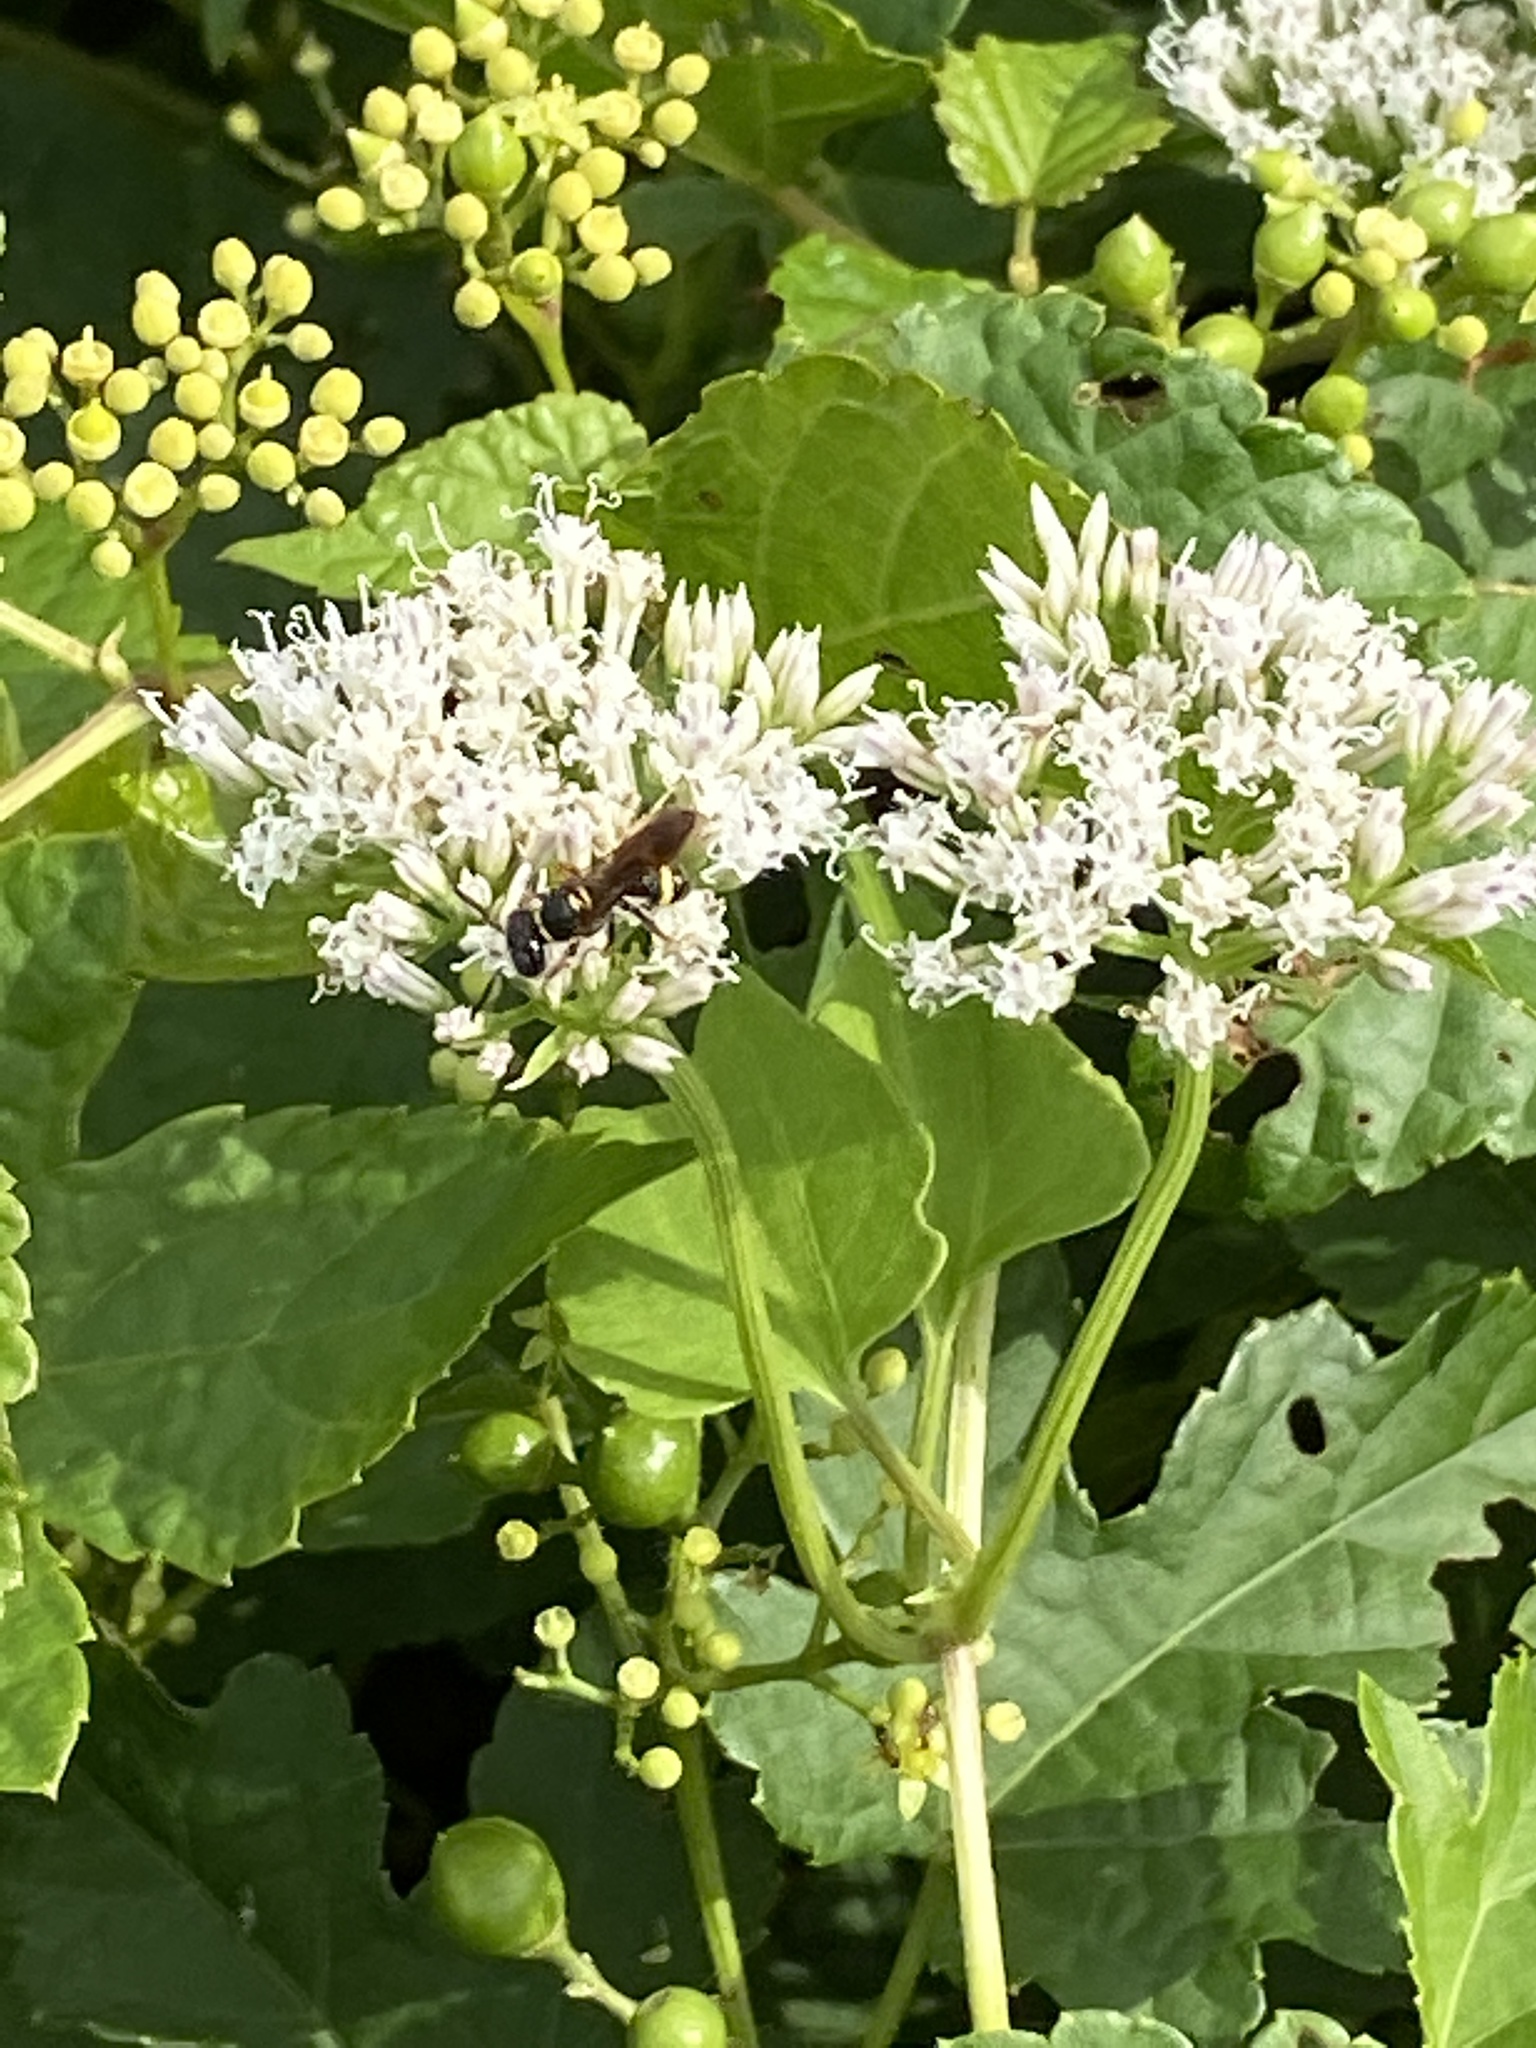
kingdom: Plantae
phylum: Tracheophyta
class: Magnoliopsida
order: Asterales
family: Asteraceae
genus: Mikania
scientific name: Mikania scandens
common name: Climbing hempvine
